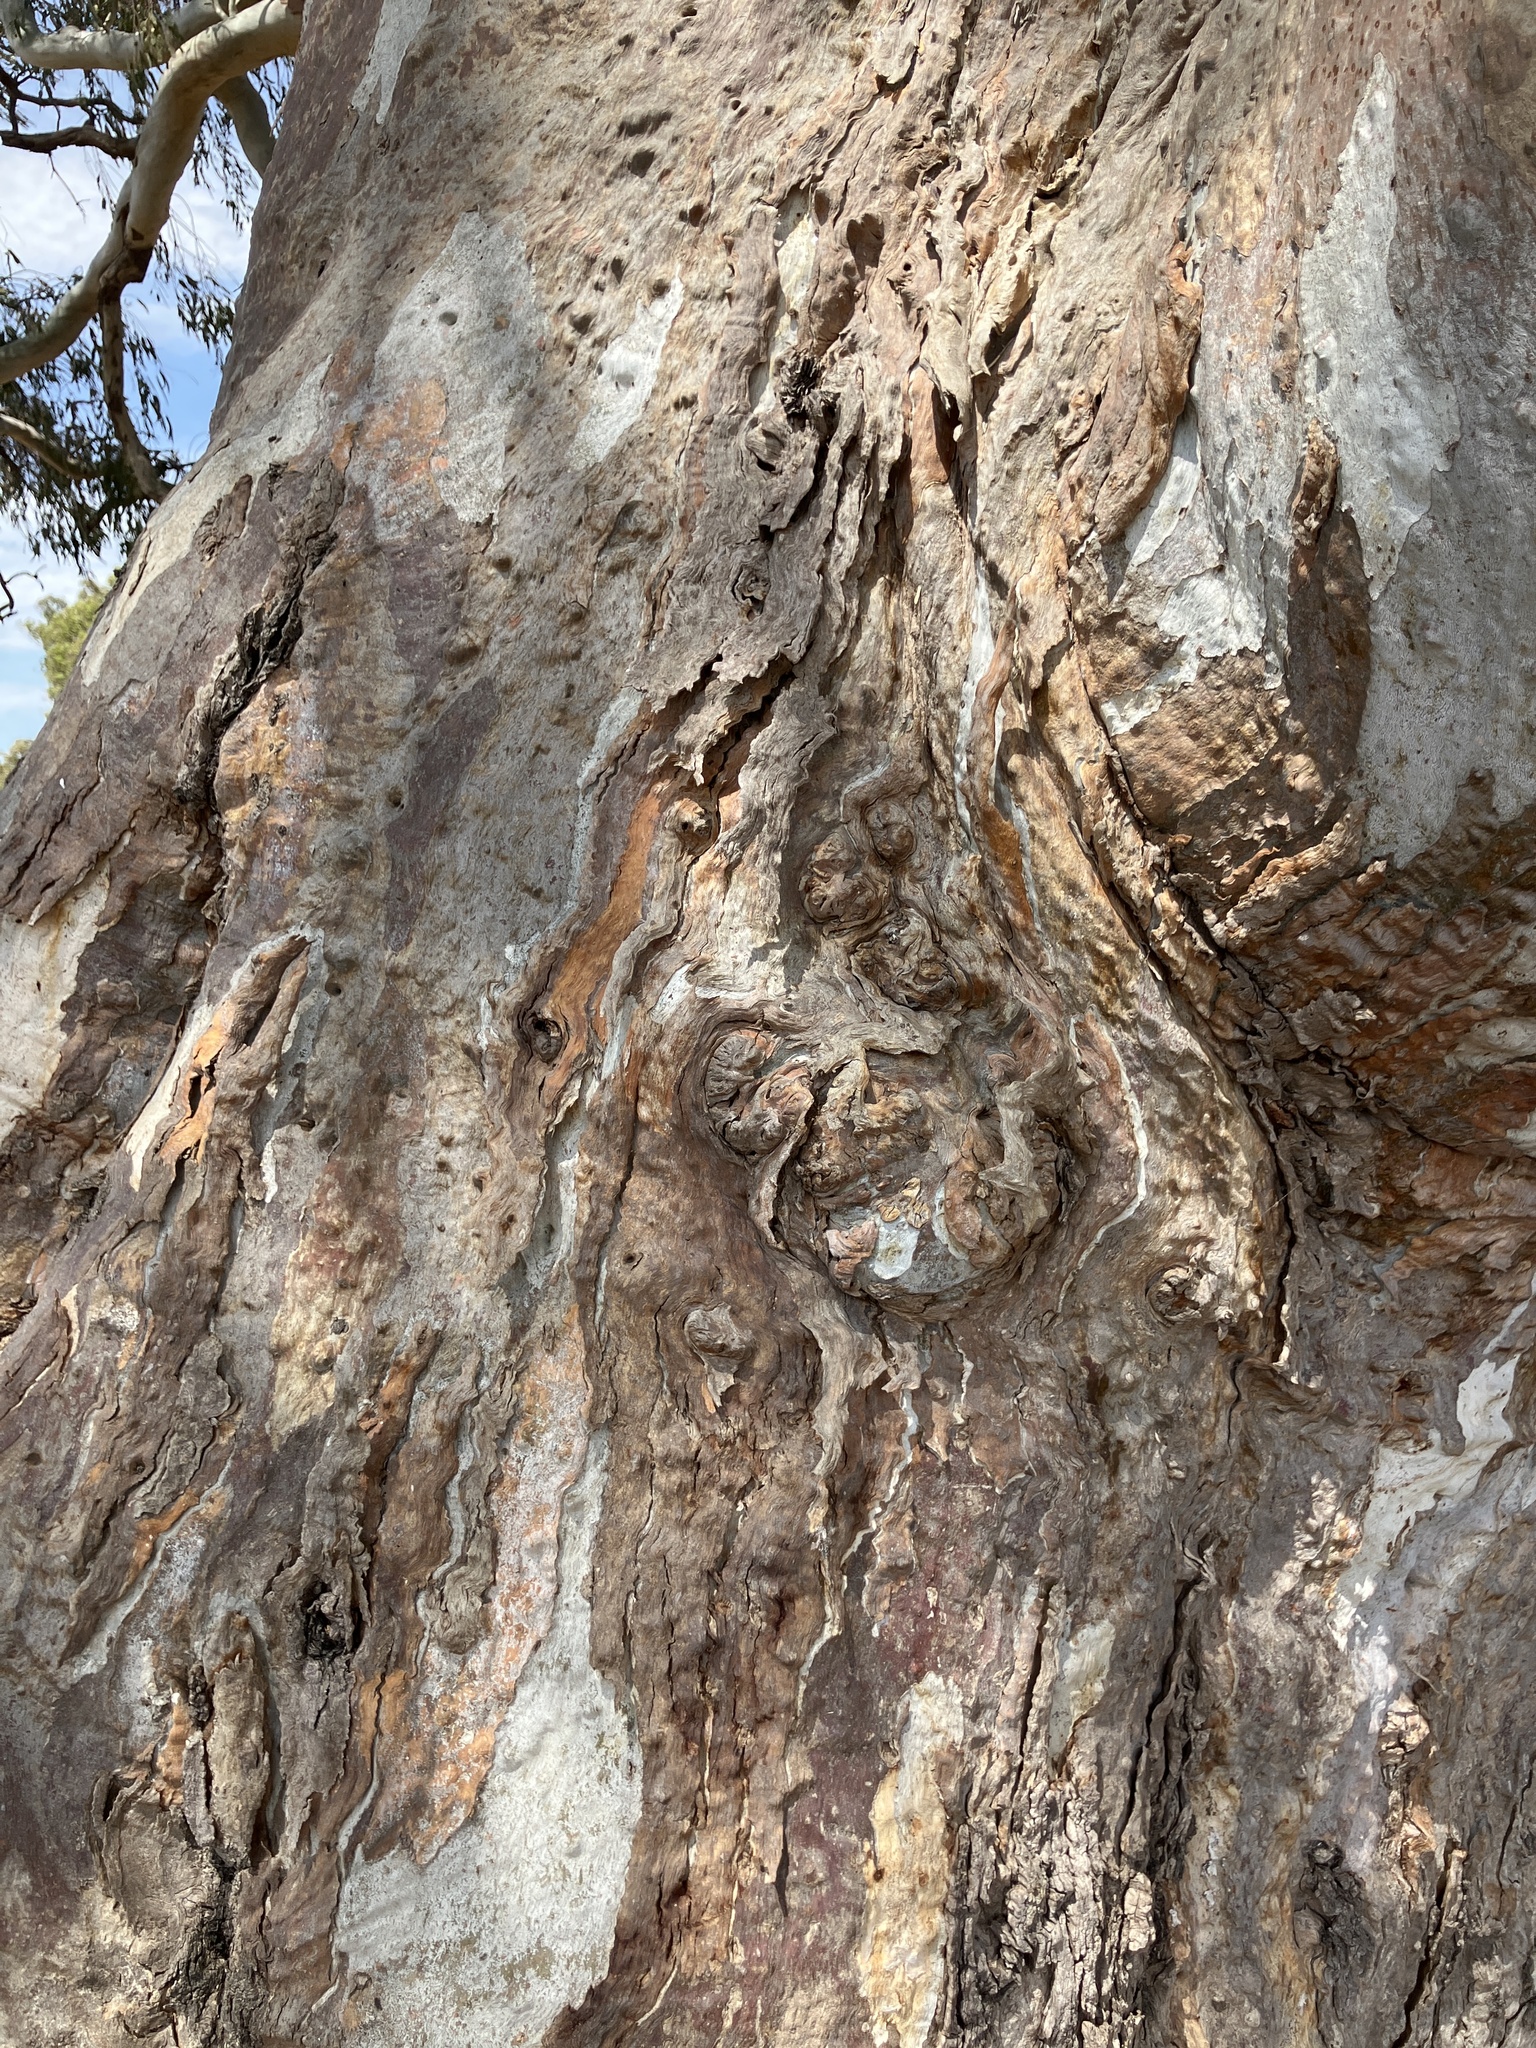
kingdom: Plantae
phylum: Tracheophyta
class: Magnoliopsida
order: Myrtales
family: Myrtaceae
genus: Eucalyptus
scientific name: Eucalyptus camaldulensis
